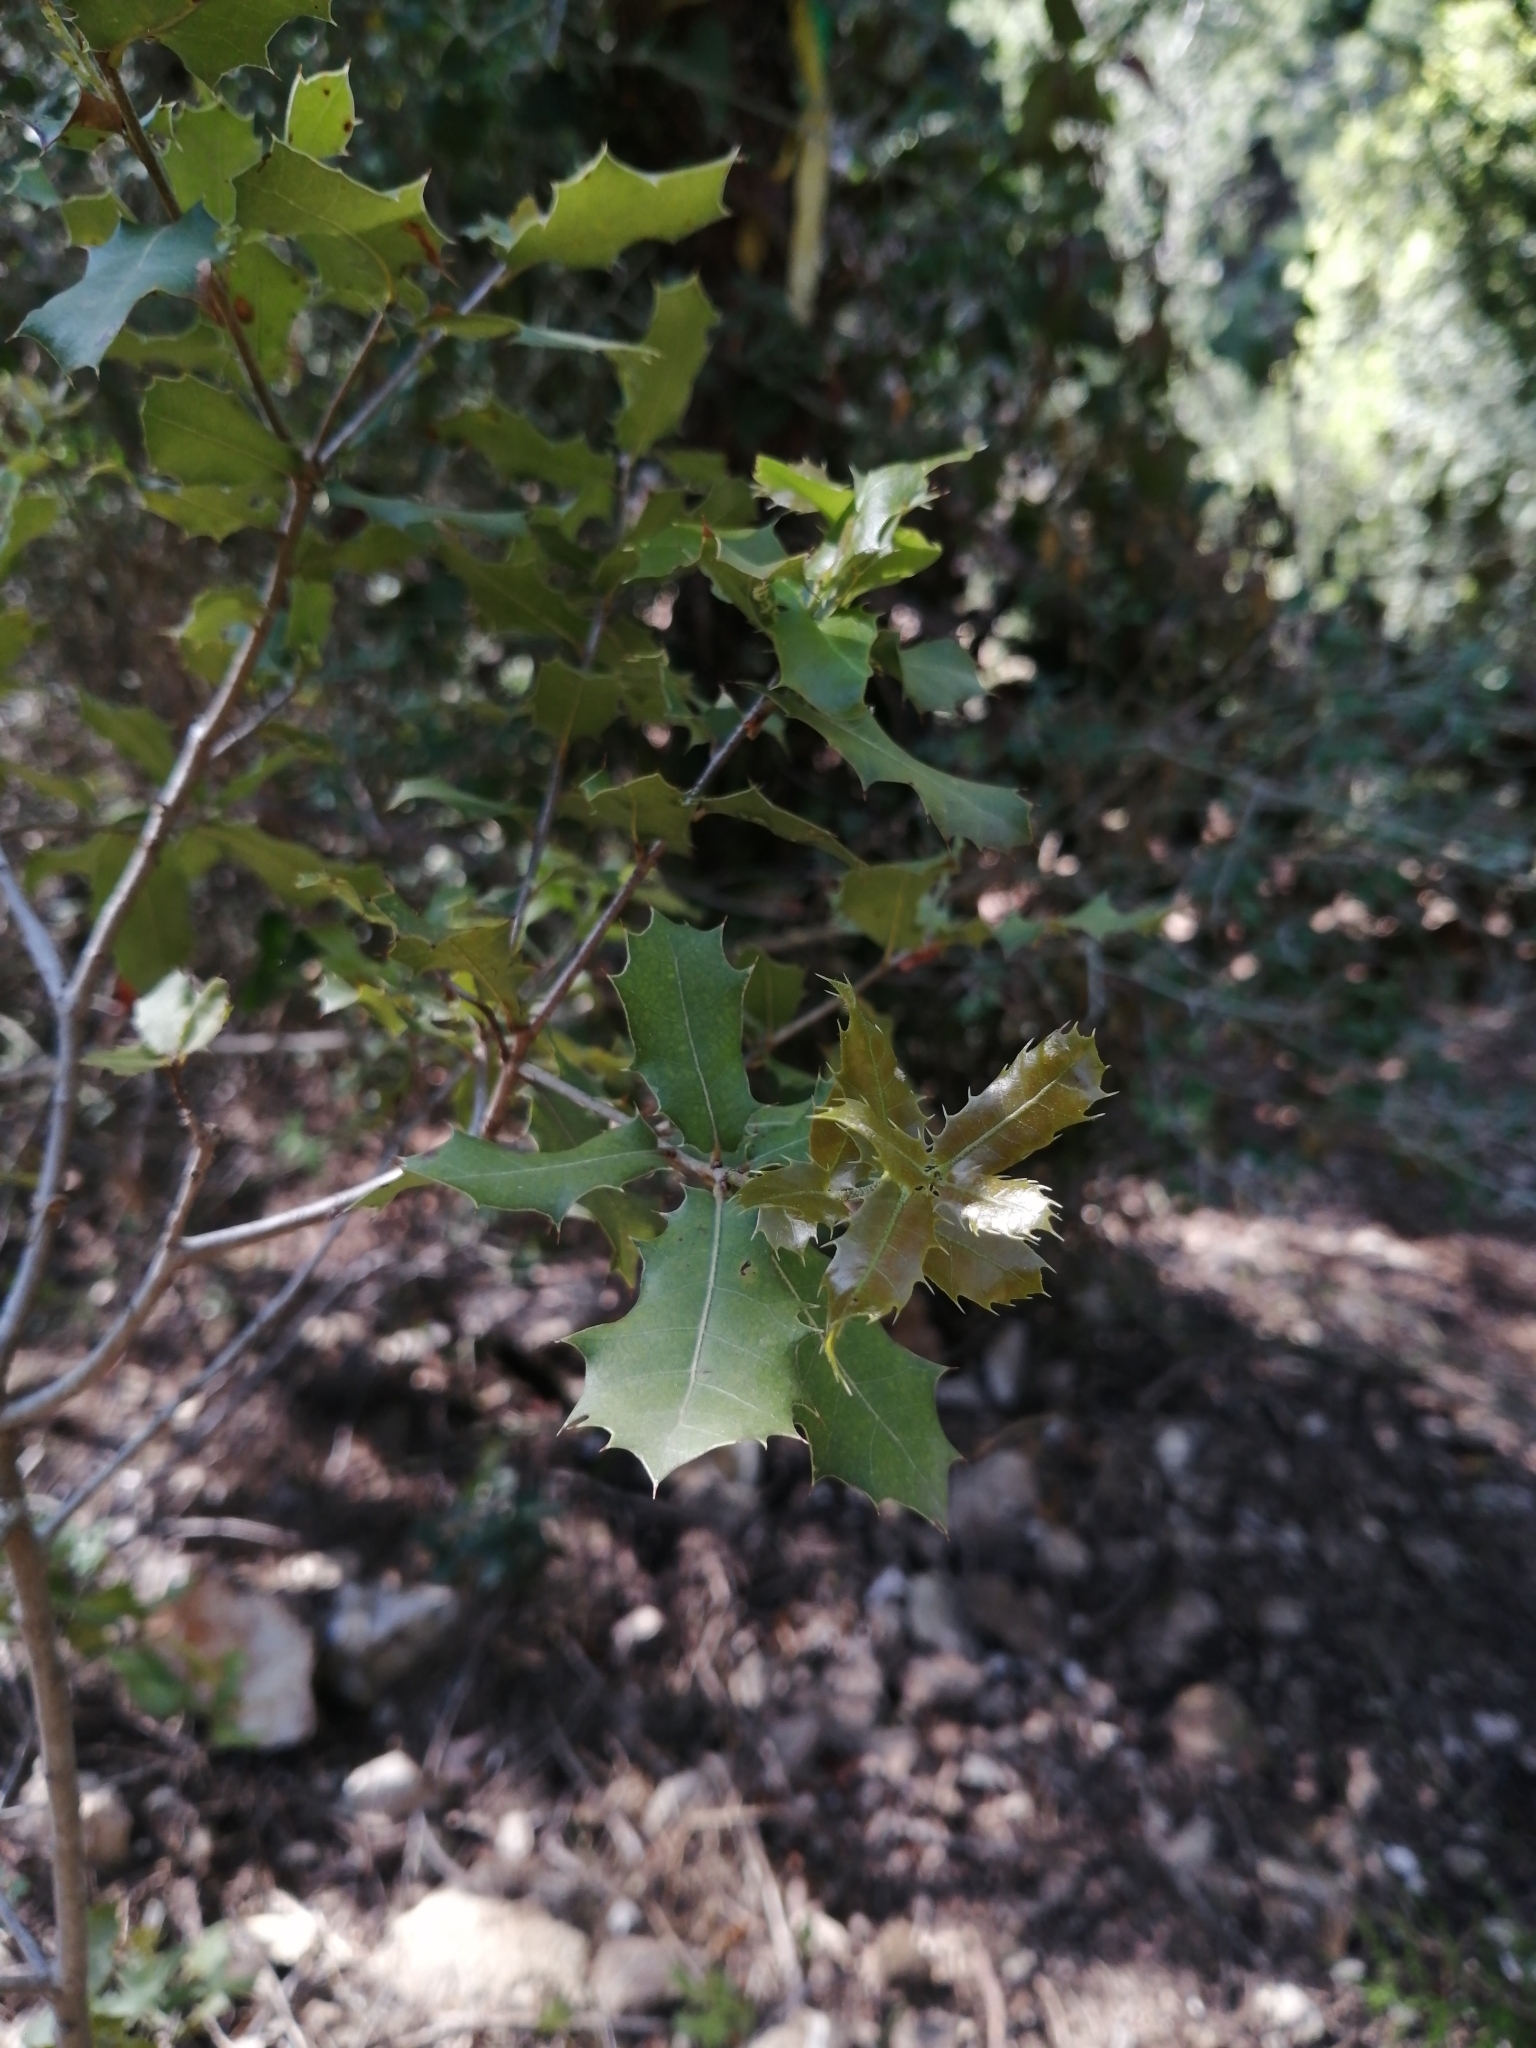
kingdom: Plantae
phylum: Tracheophyta
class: Magnoliopsida
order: Fagales
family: Fagaceae
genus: Quercus
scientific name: Quercus coccifera
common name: Kermes oak
